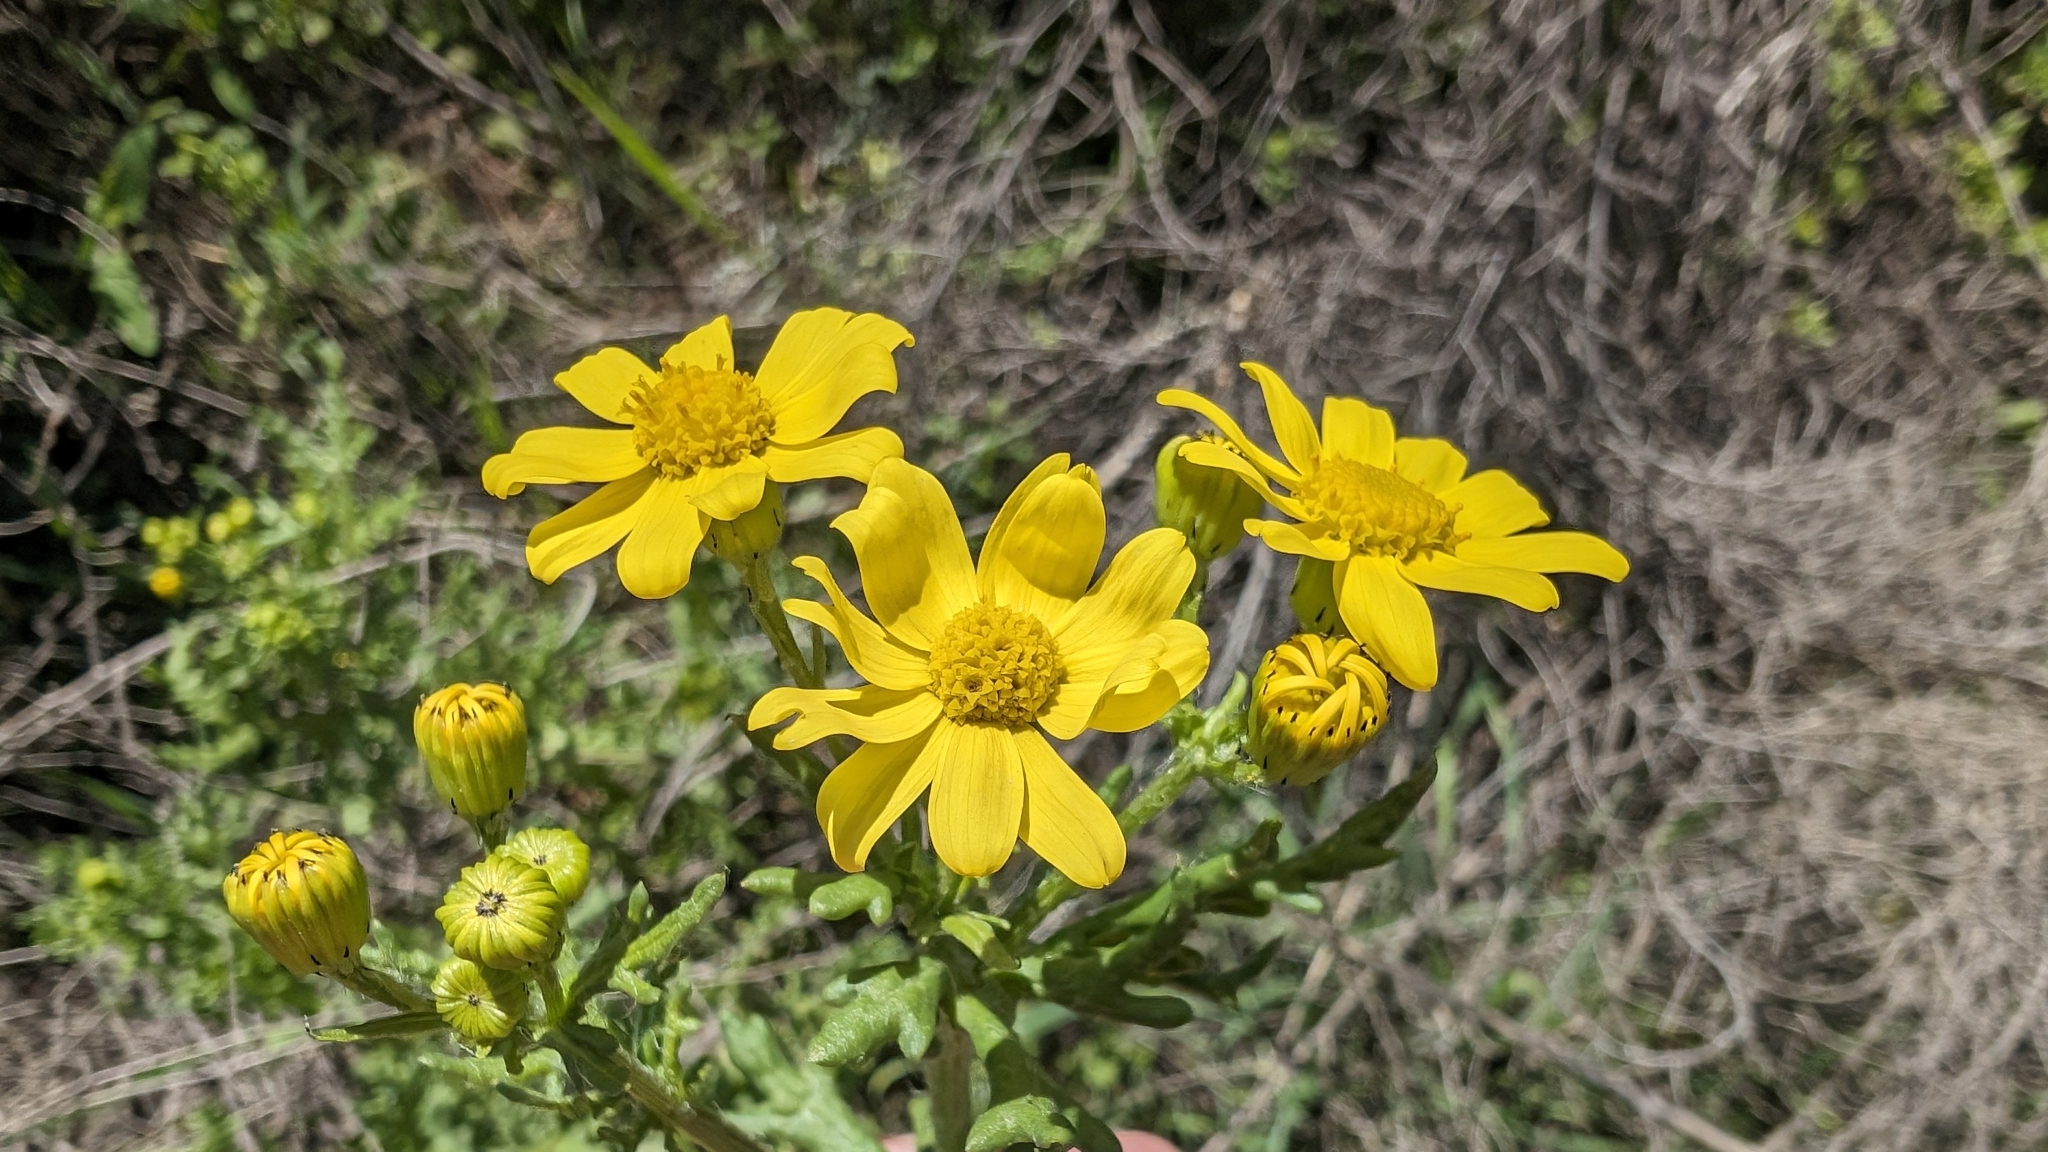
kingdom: Plantae
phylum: Tracheophyta
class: Magnoliopsida
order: Asterales
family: Asteraceae
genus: Senecio
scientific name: Senecio vernalis
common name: Eastern groundsel
